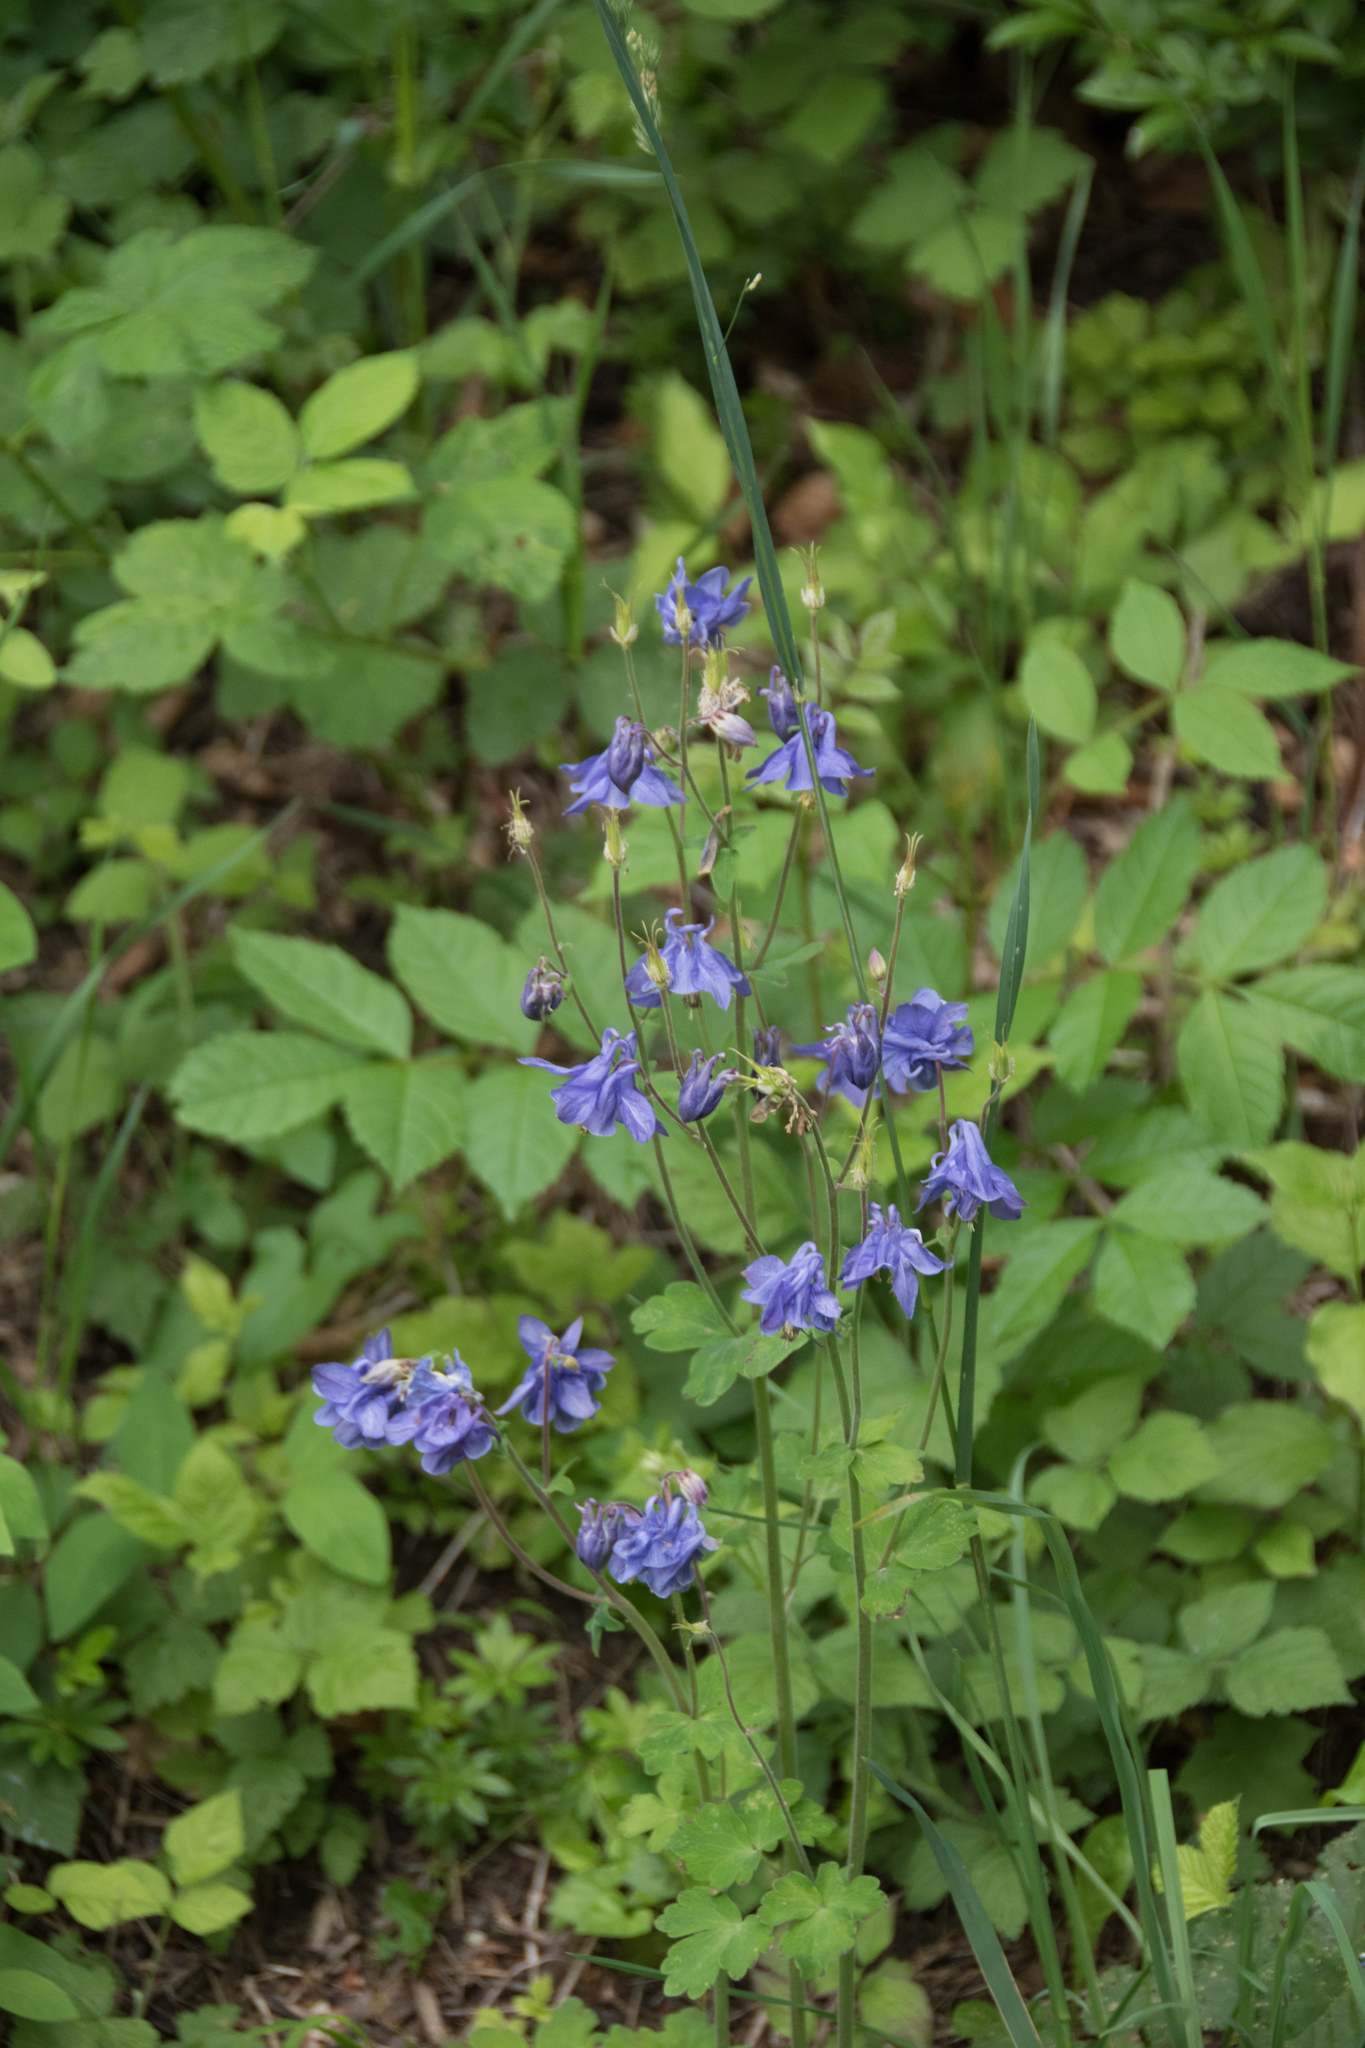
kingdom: Plantae
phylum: Tracheophyta
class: Magnoliopsida
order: Ranunculales
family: Ranunculaceae
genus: Aquilegia
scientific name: Aquilegia vulgaris
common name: Columbine
